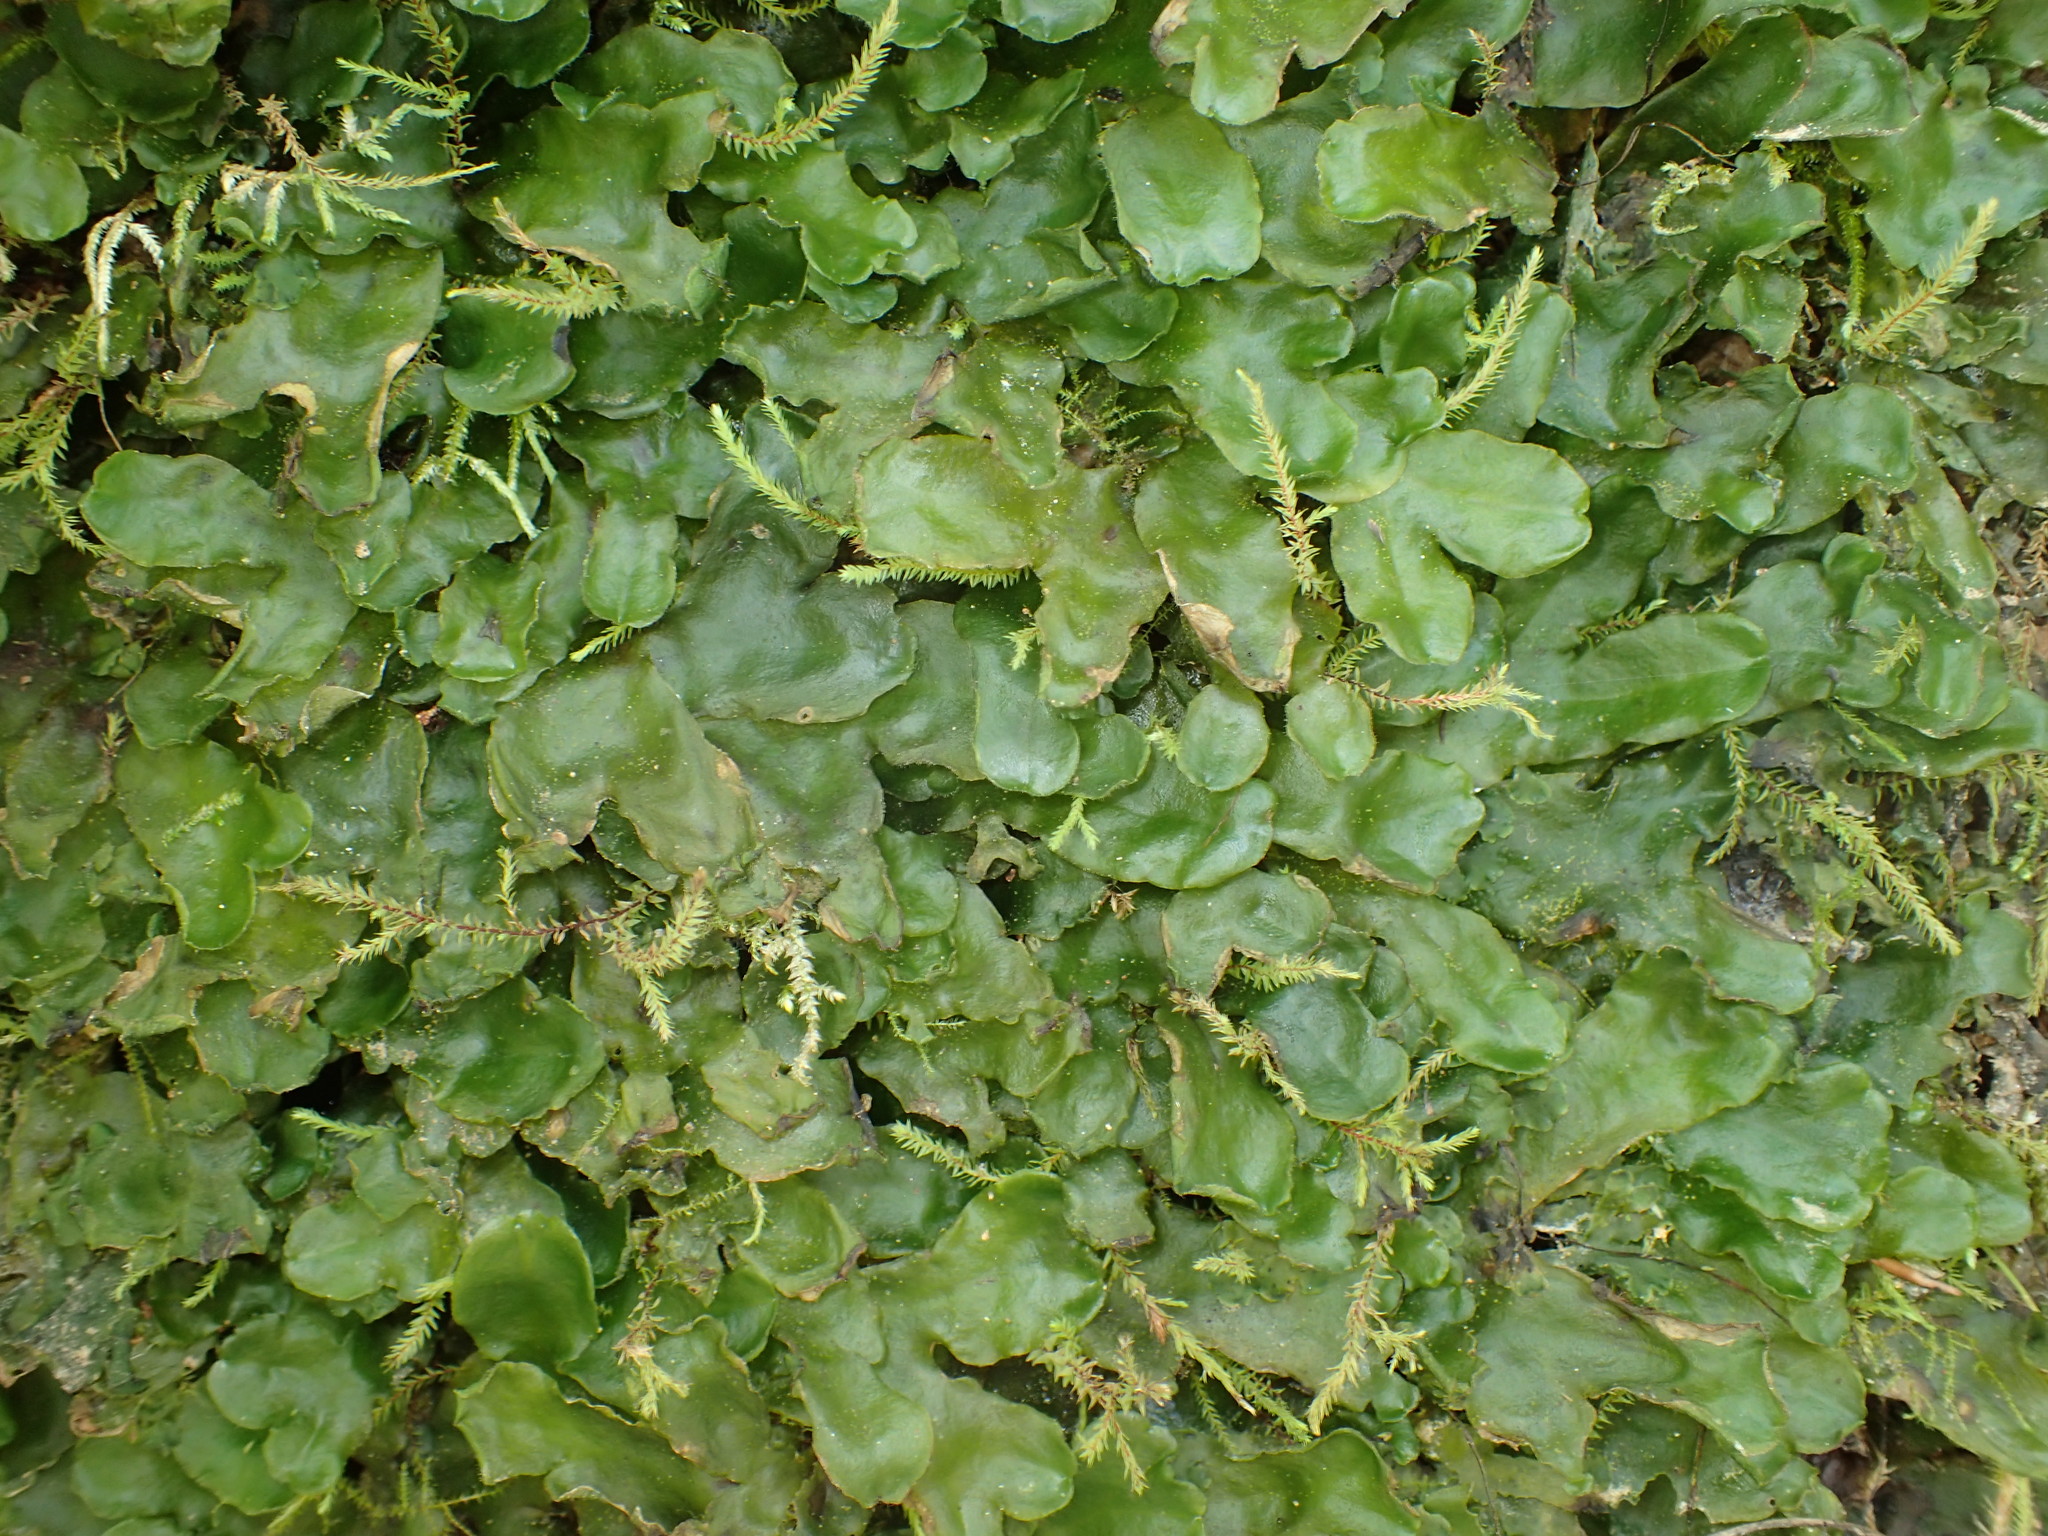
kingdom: Plantae
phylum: Marchantiophyta
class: Marchantiopsida
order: Marchantiales
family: Dumortieraceae
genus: Dumortiera
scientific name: Dumortiera hirsuta
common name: Dumortier's liverwort
